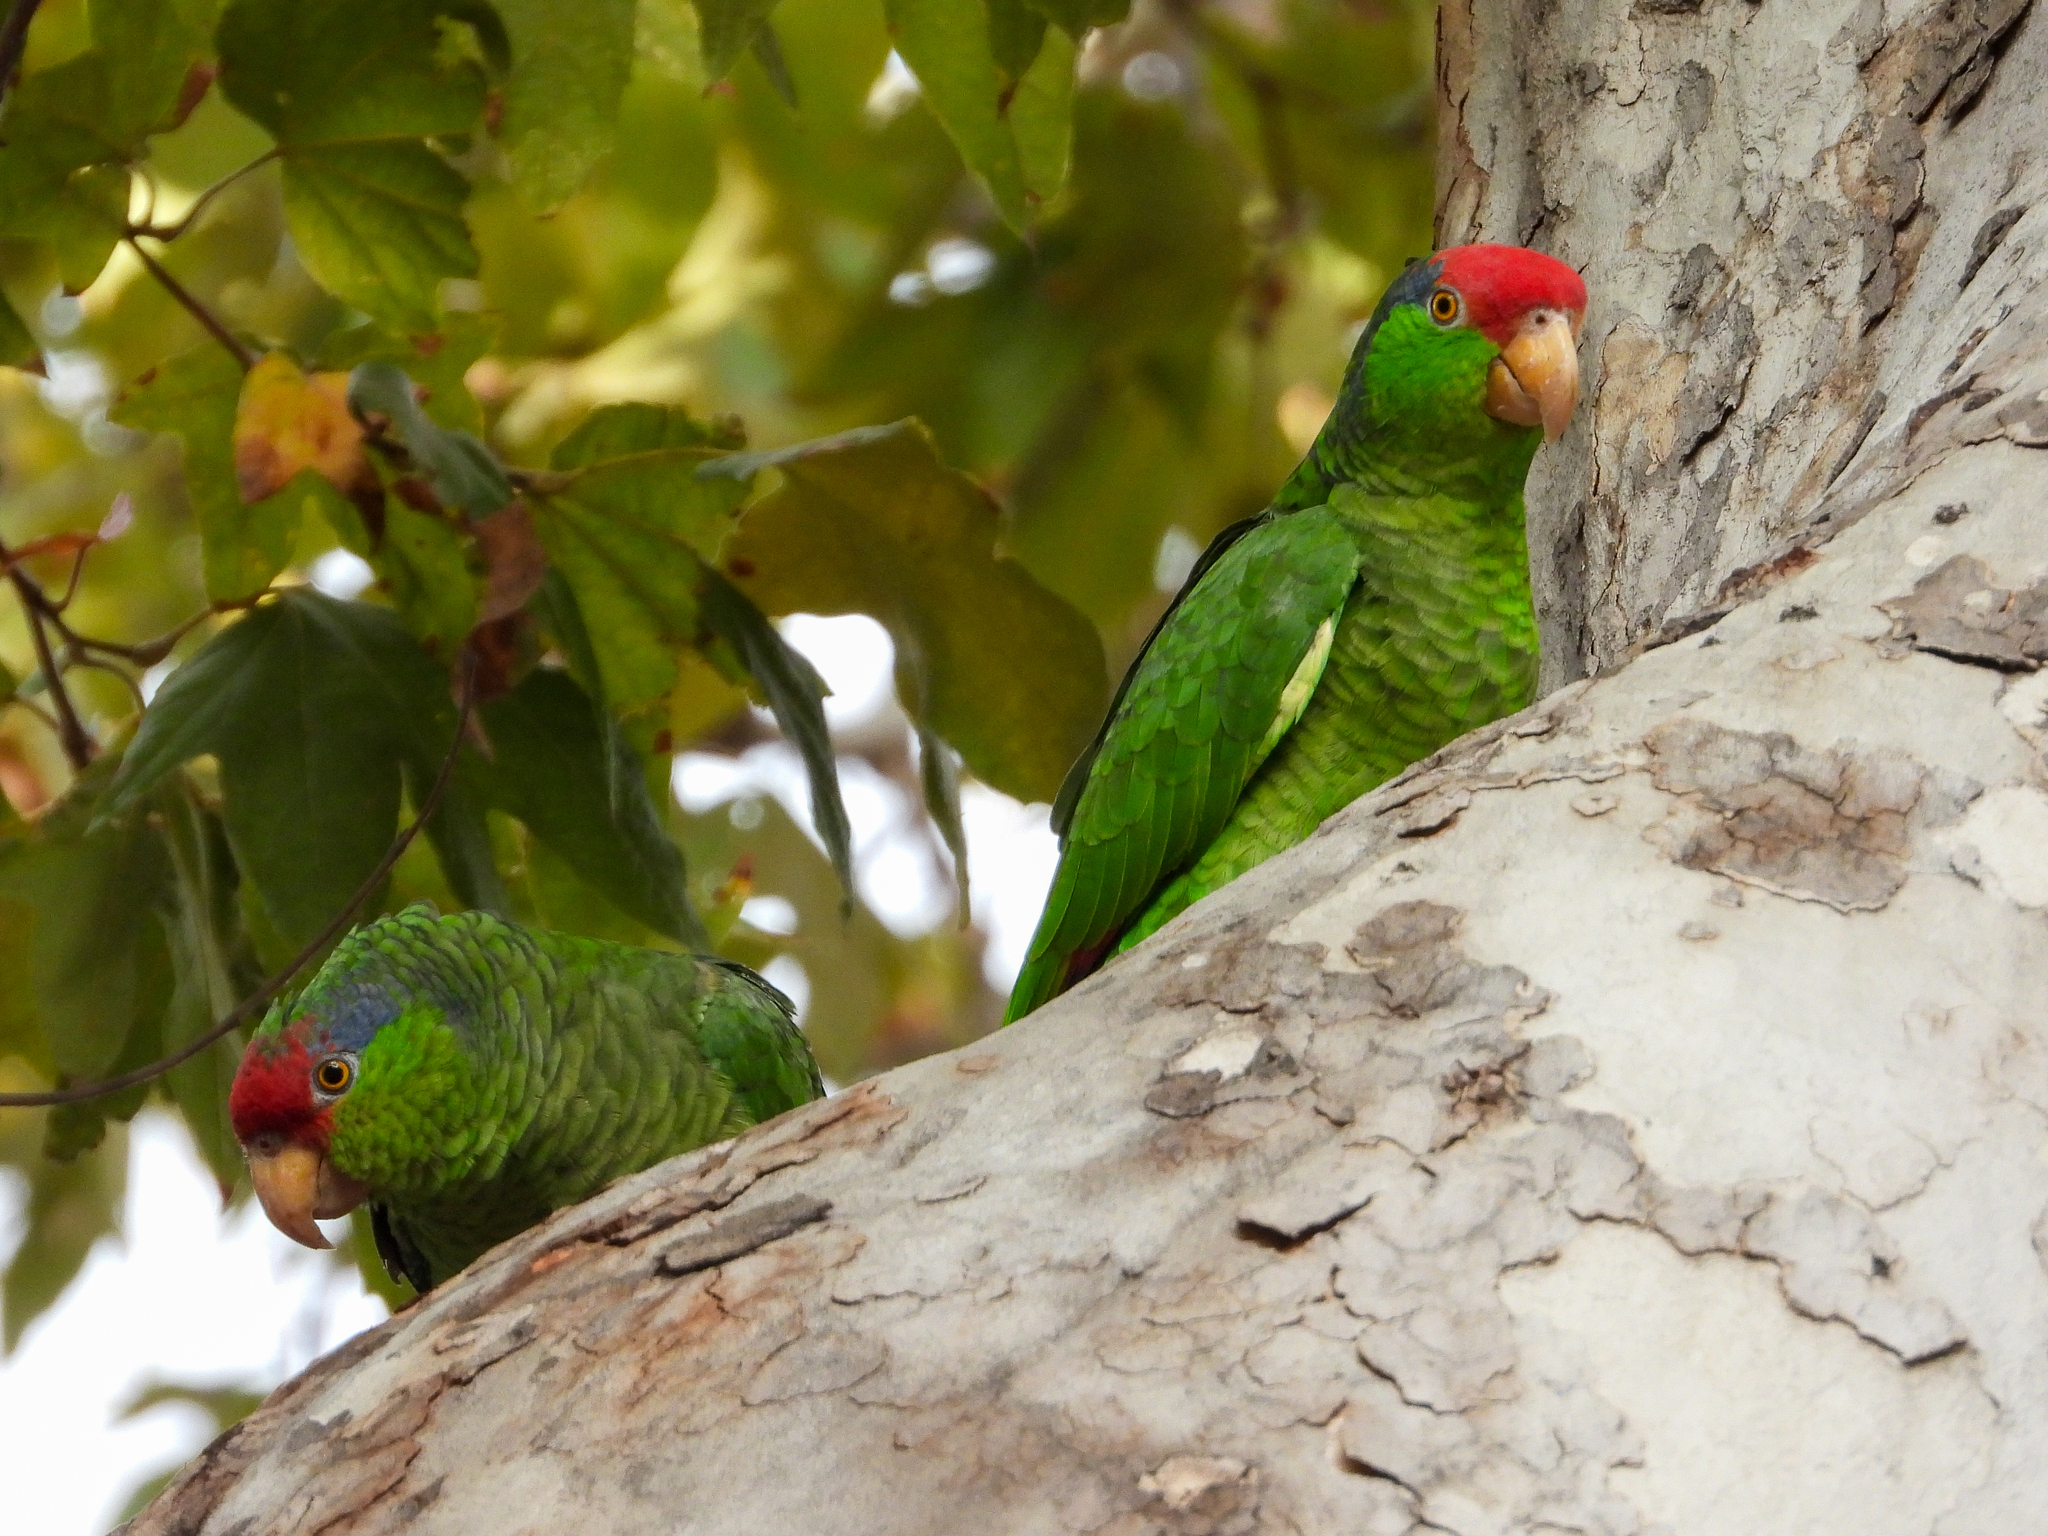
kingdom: Animalia
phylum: Chordata
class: Aves
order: Psittaciformes
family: Psittacidae
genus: Amazona
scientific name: Amazona viridigenalis
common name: Red-crowned amazon
